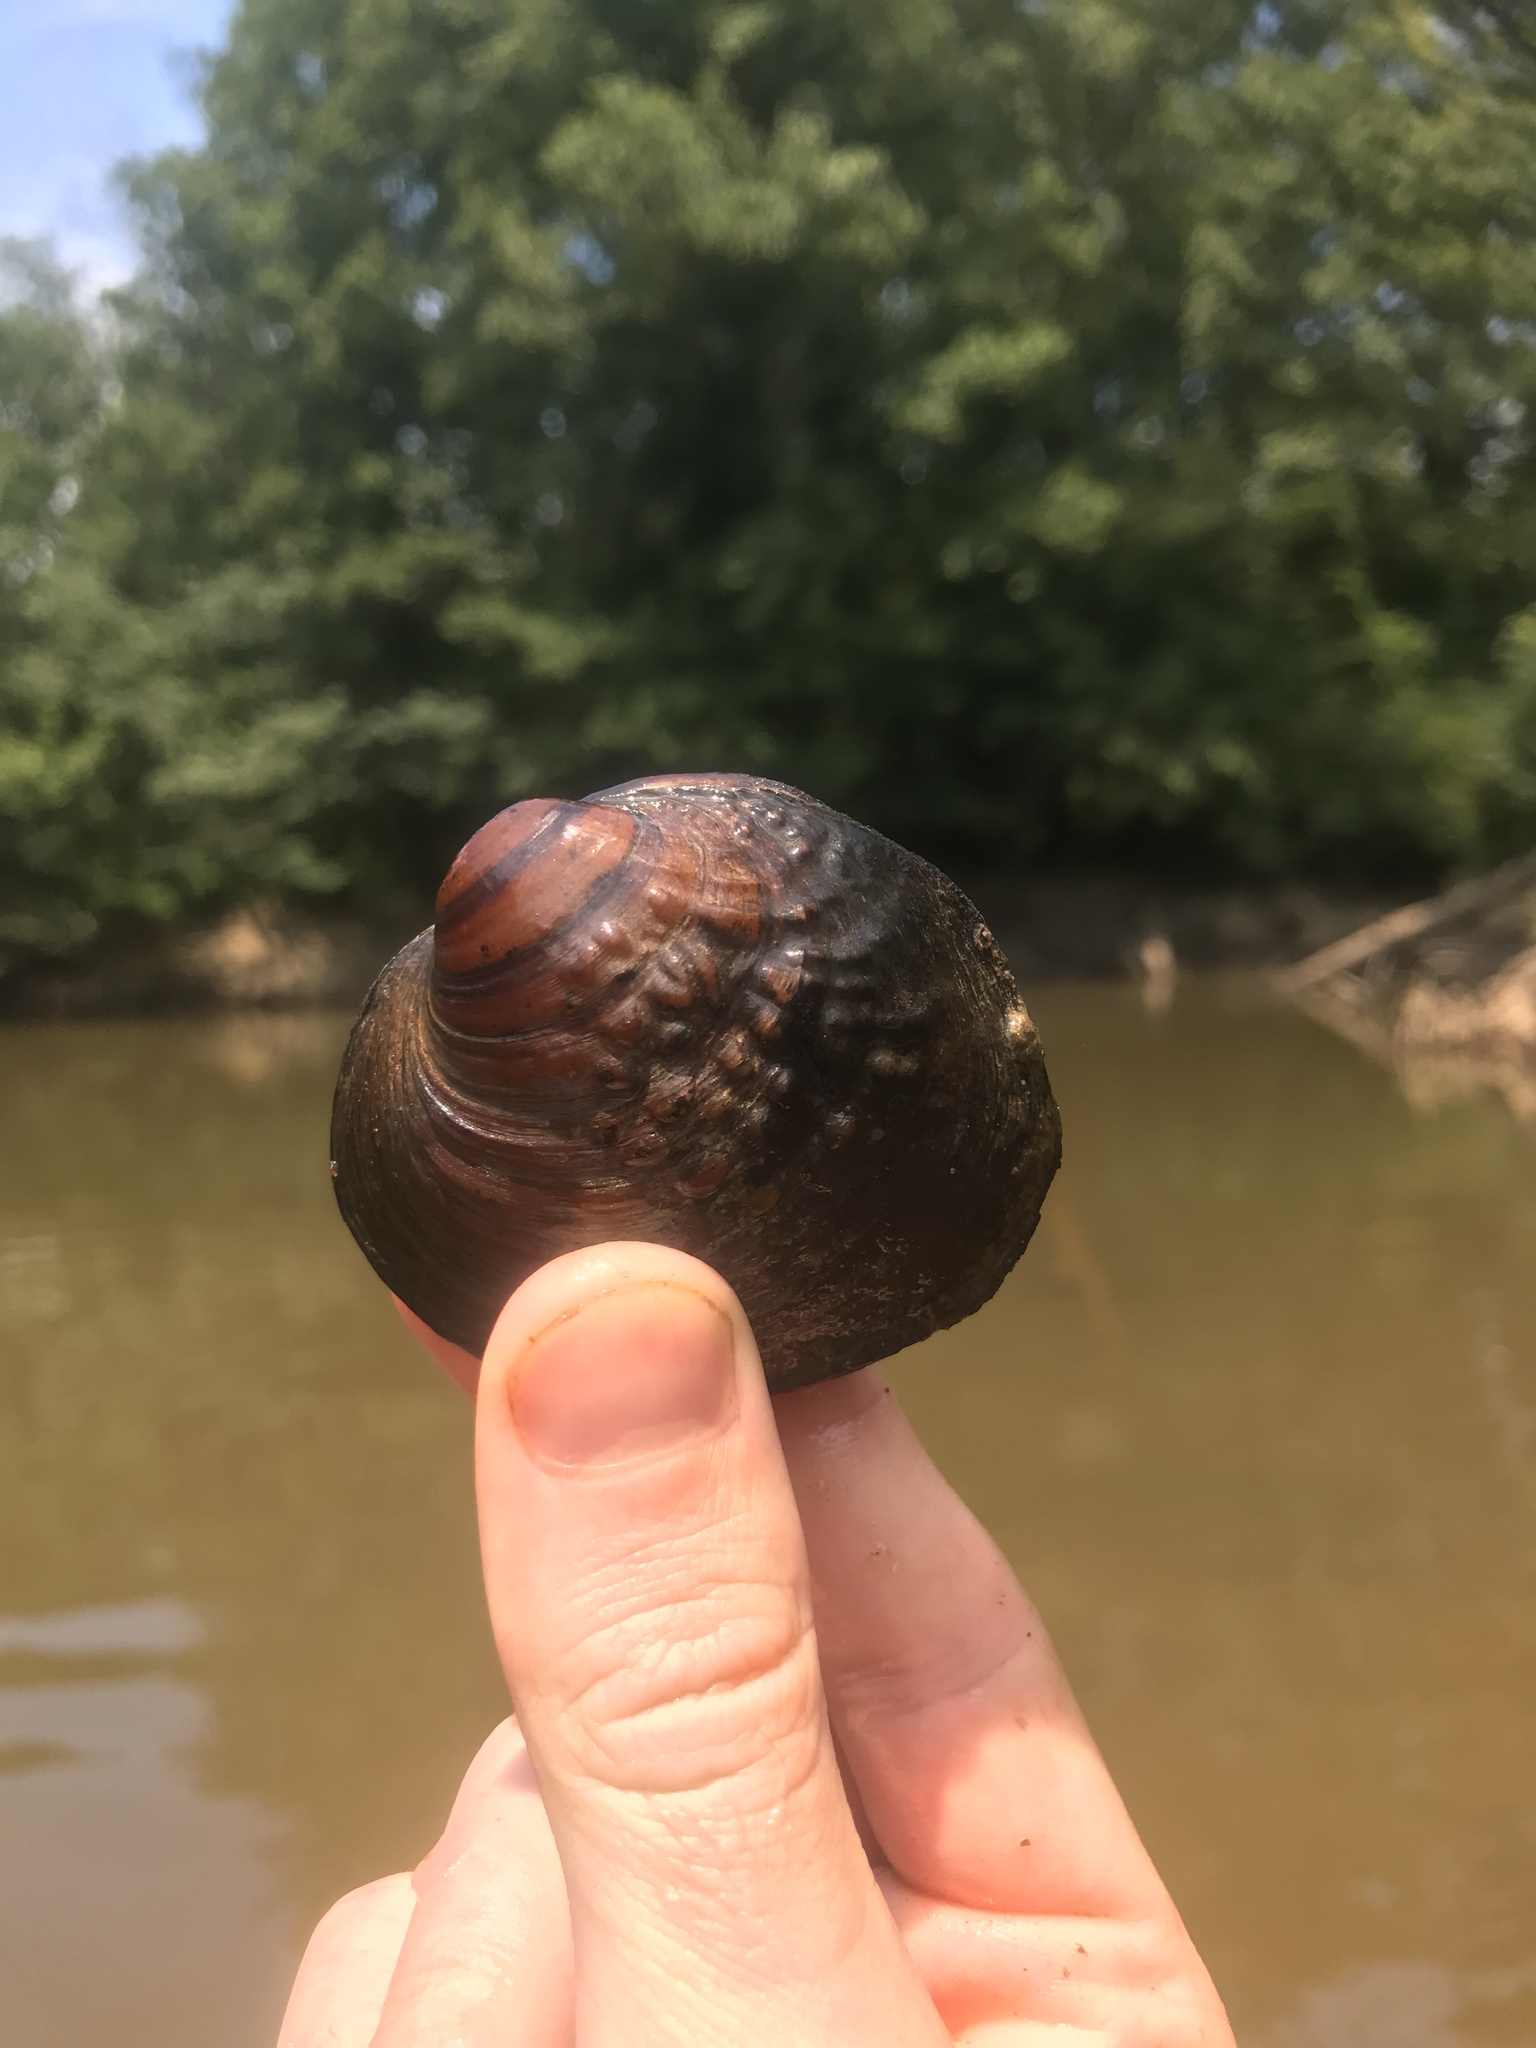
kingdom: Animalia
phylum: Mollusca
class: Bivalvia
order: Unionida
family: Unionidae
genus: Cyclonaias
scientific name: Cyclonaias kieneriana
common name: Coosa orb
